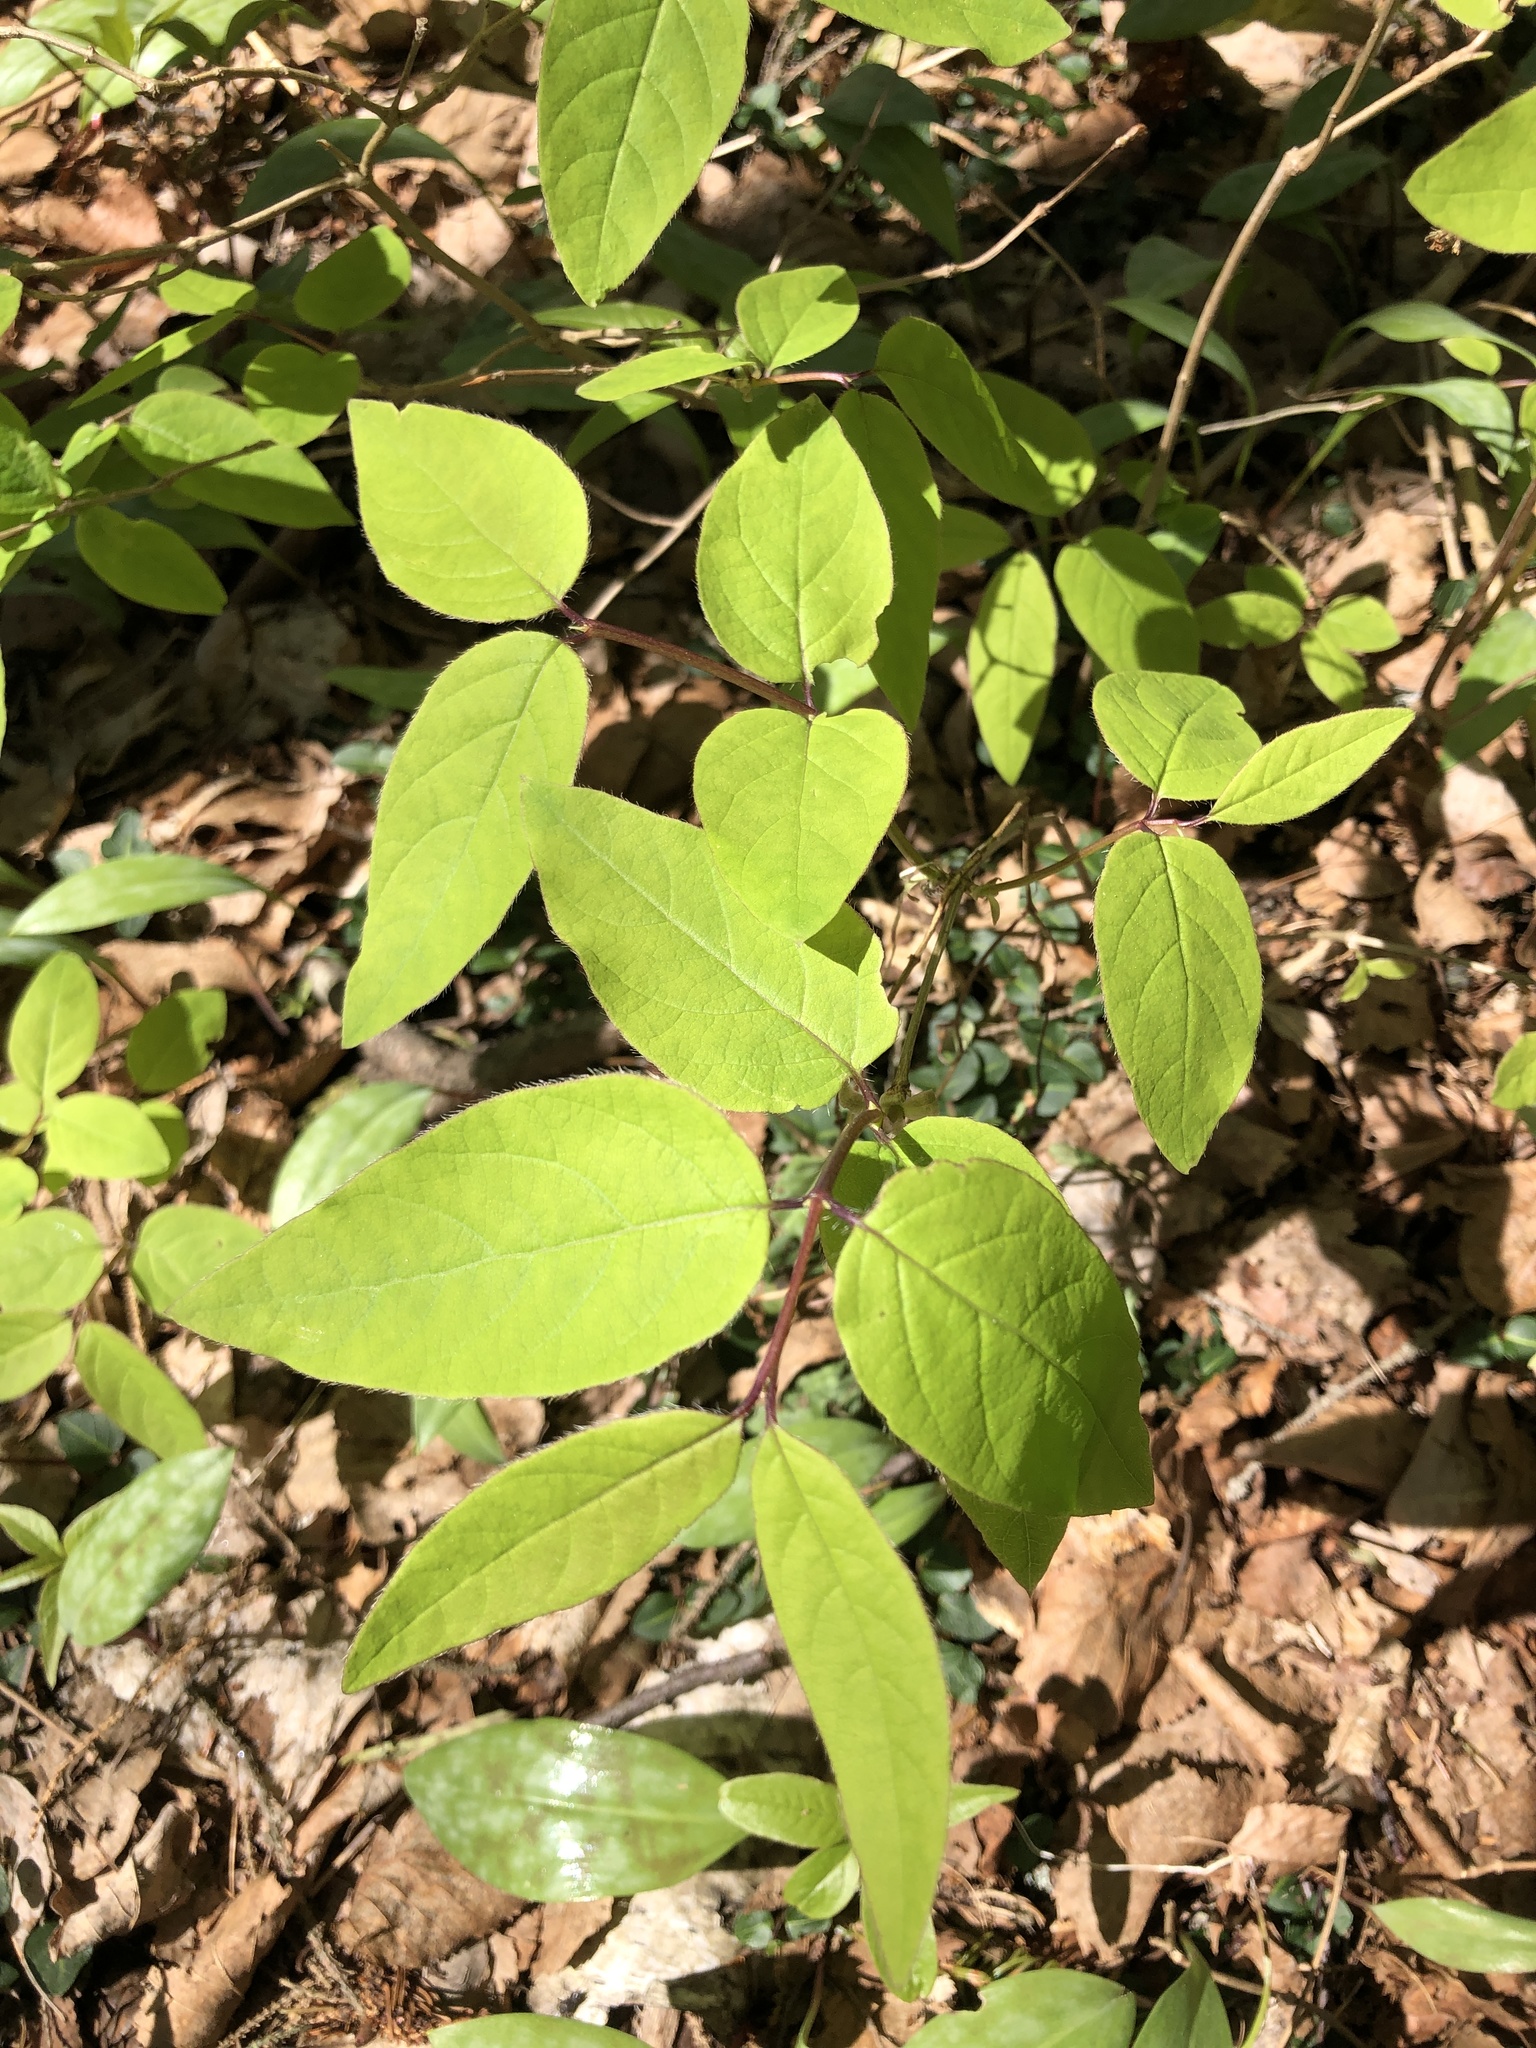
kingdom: Plantae
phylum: Tracheophyta
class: Magnoliopsida
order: Dipsacales
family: Caprifoliaceae
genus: Lonicera
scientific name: Lonicera canadensis
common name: American fly-honeysuckle
